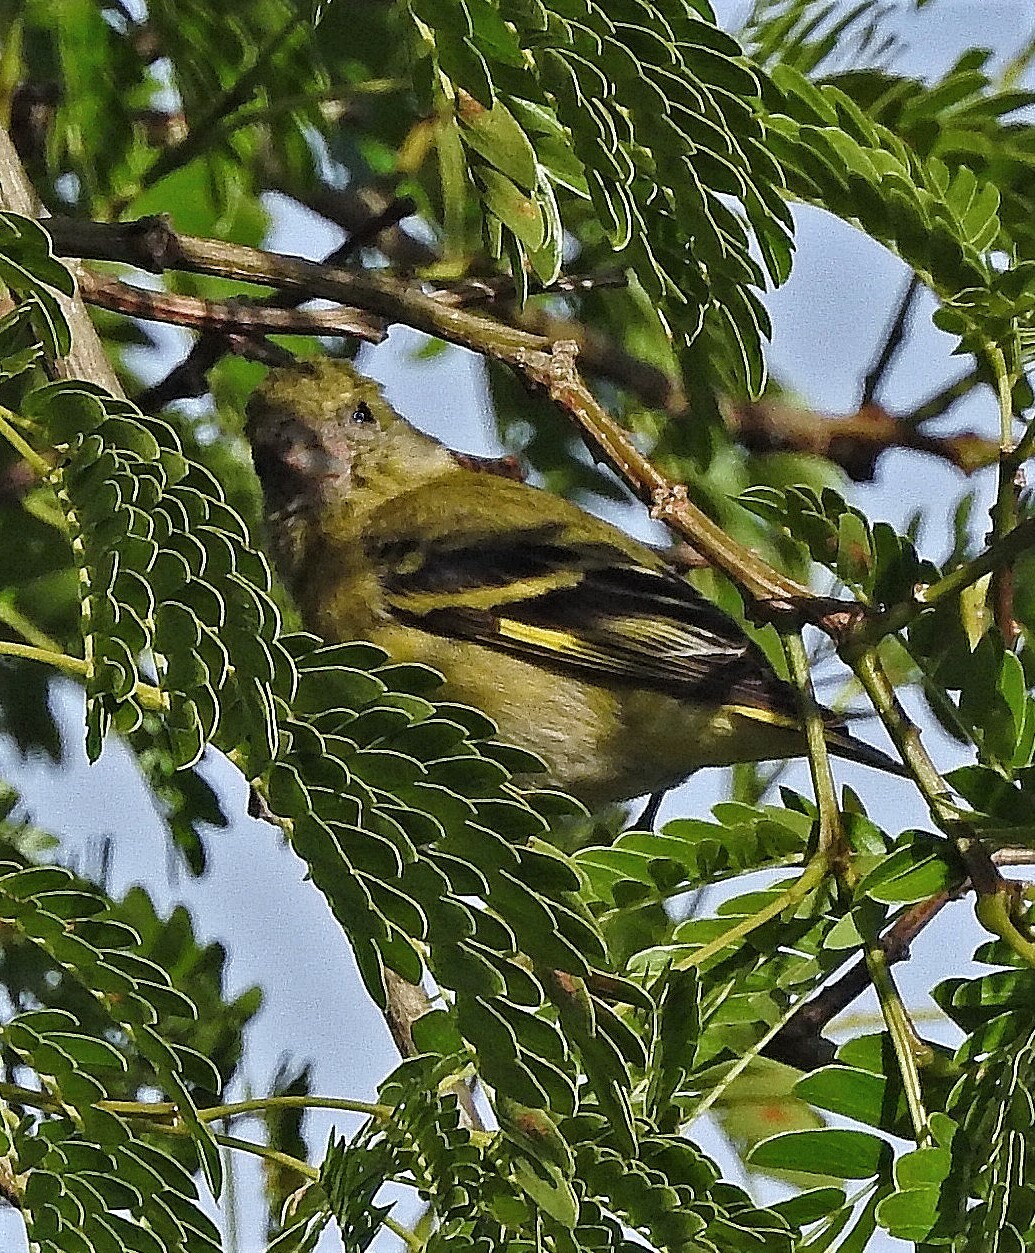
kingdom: Animalia
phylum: Chordata
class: Aves
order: Passeriformes
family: Fringillidae
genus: Spinus
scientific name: Spinus magellanicus
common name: Hooded siskin
